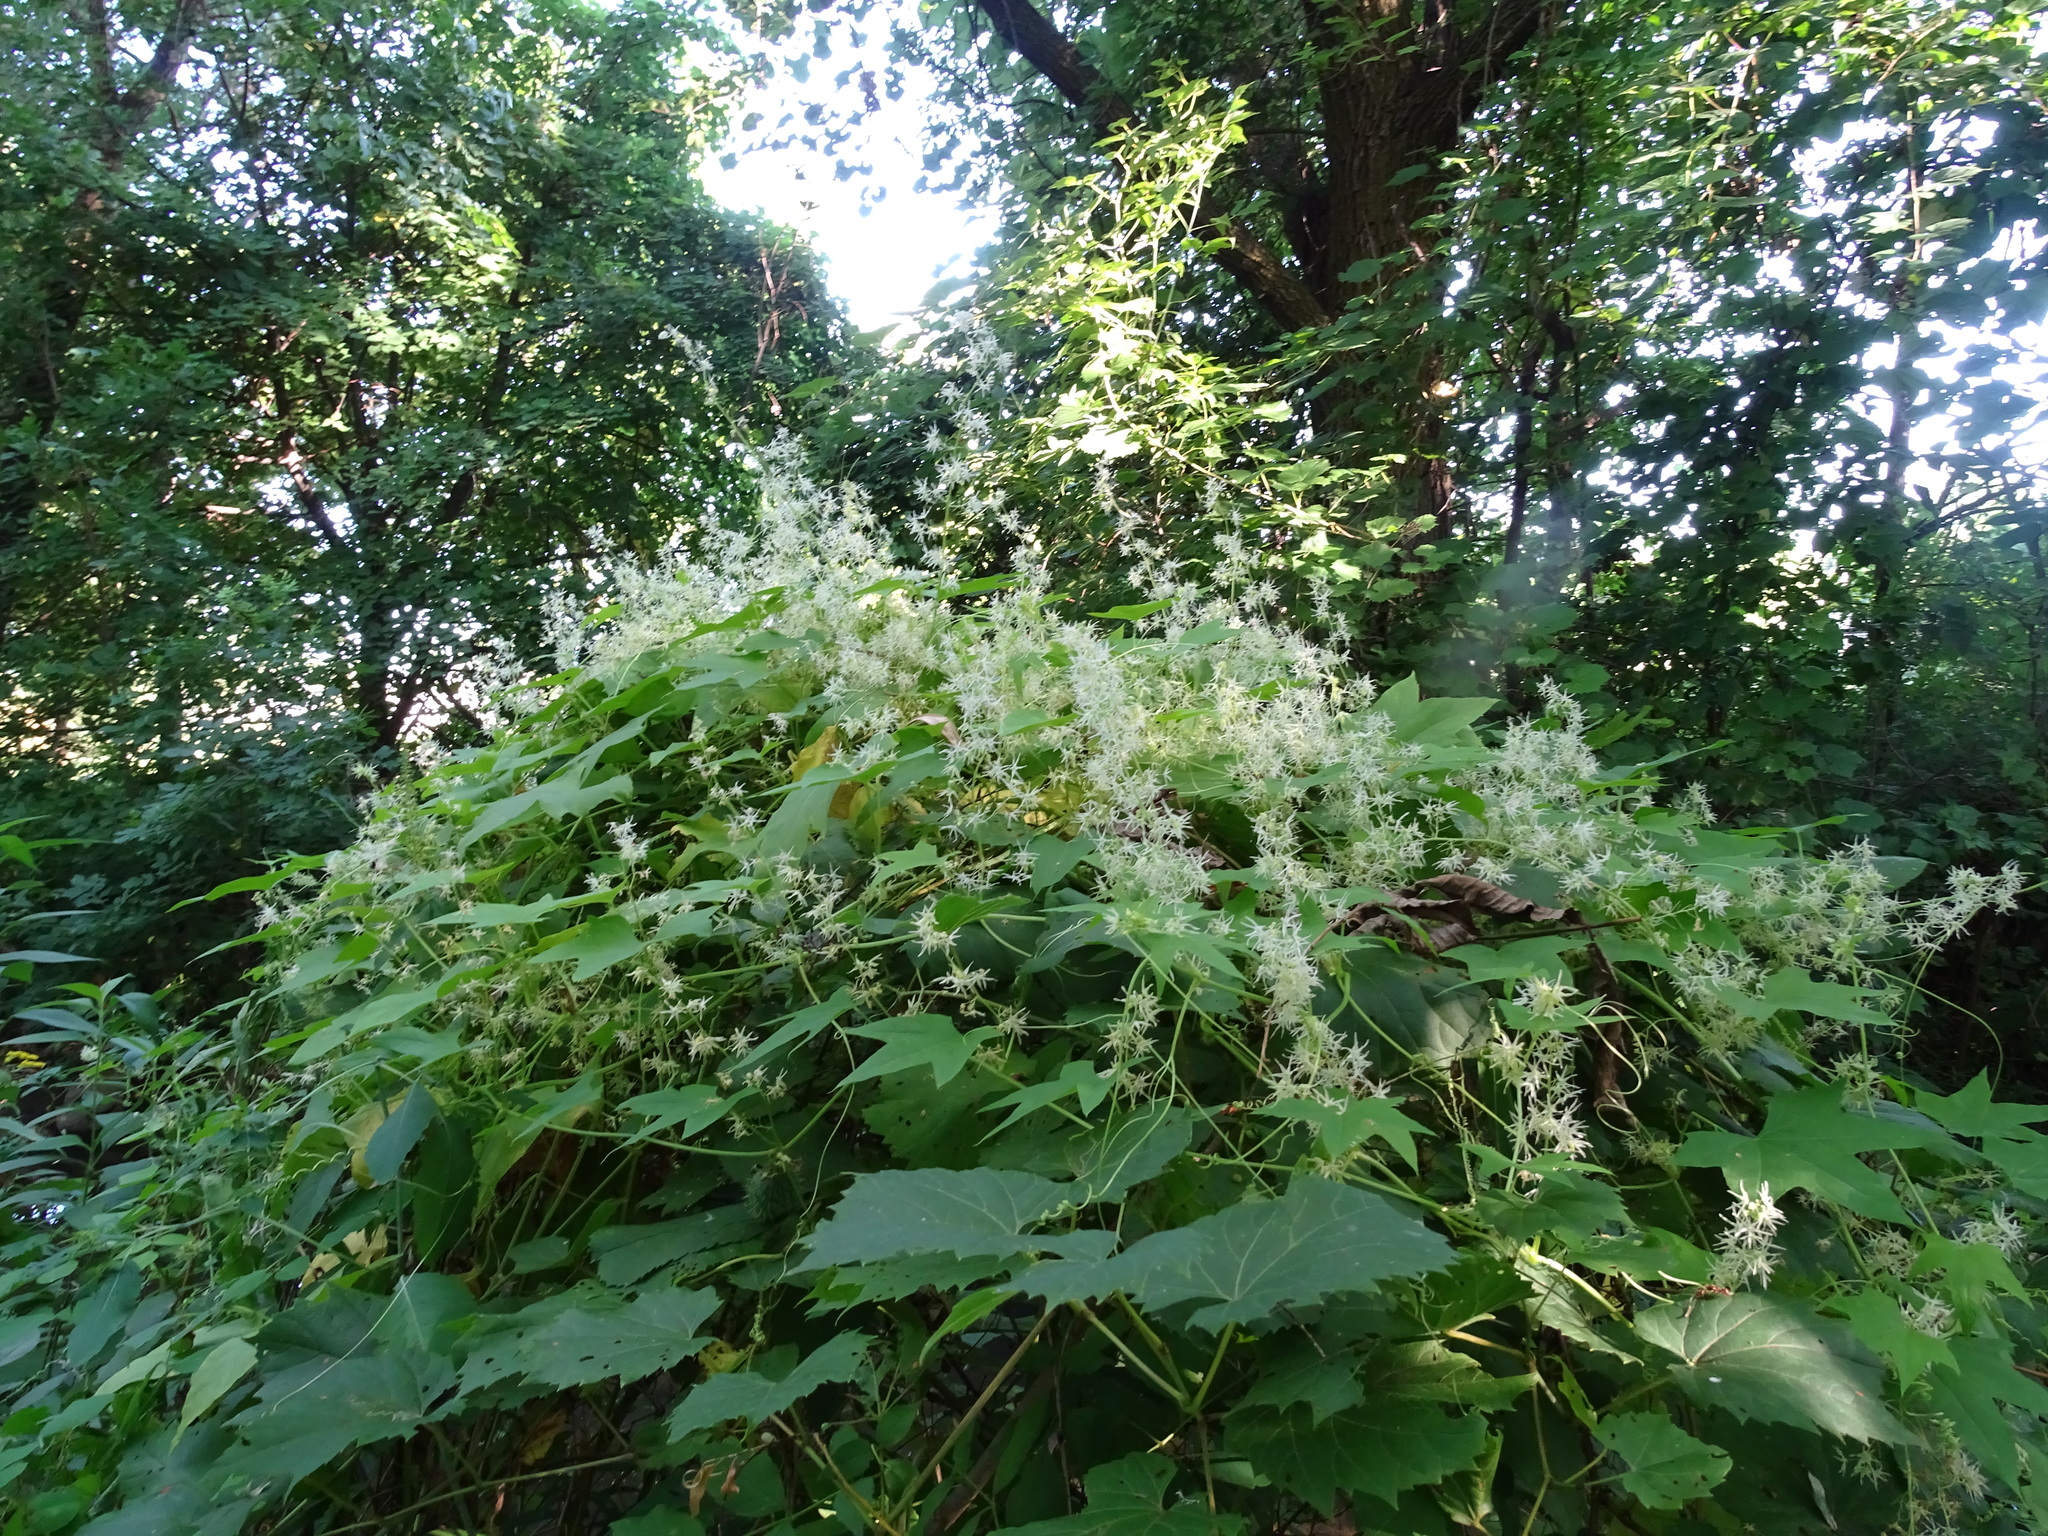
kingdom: Plantae
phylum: Tracheophyta
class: Magnoliopsida
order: Cucurbitales
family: Cucurbitaceae
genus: Echinocystis
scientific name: Echinocystis lobata
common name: Wild cucumber
